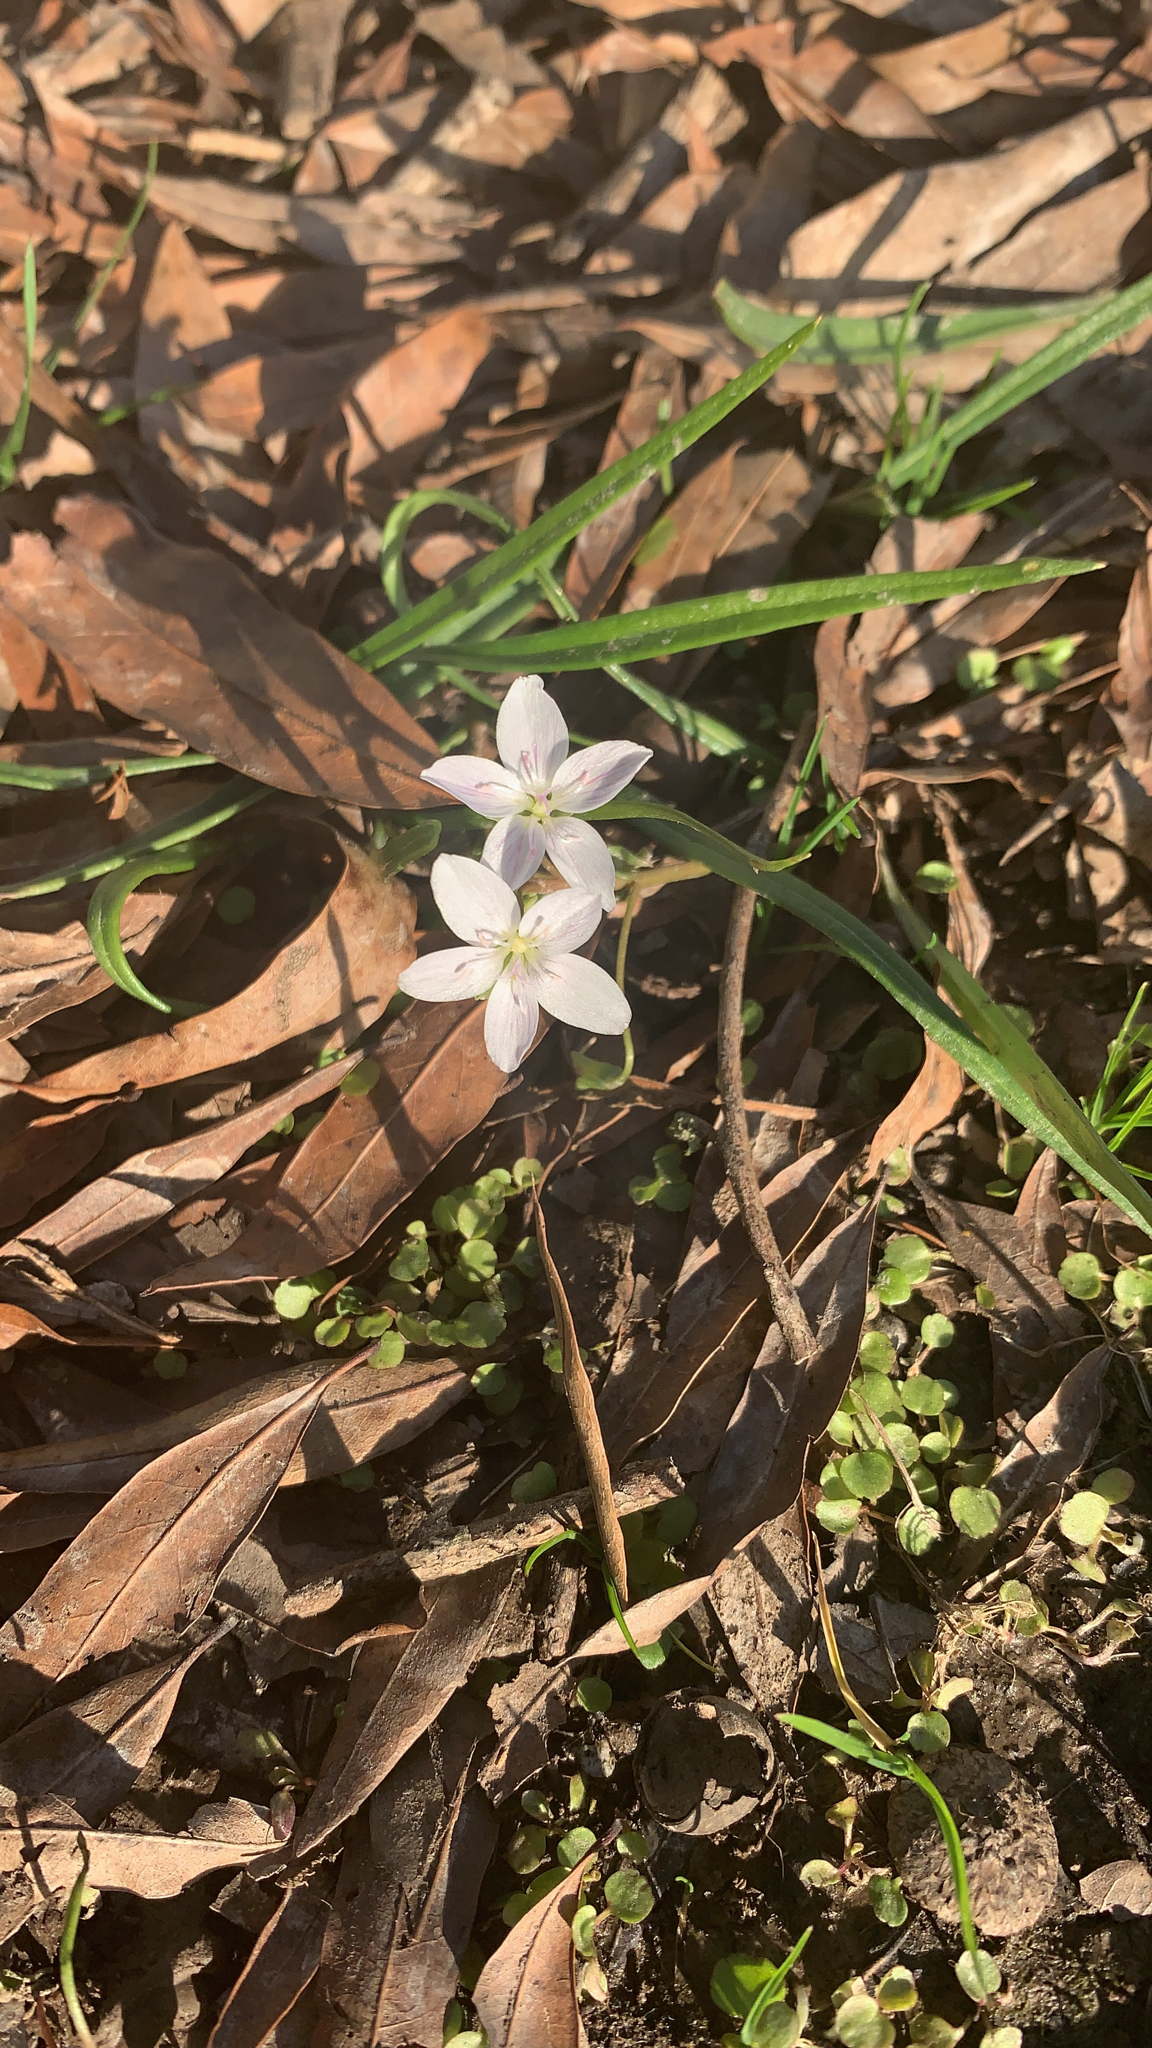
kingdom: Plantae
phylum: Tracheophyta
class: Magnoliopsida
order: Caryophyllales
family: Montiaceae
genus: Claytonia
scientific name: Claytonia virginica
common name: Virginia springbeauty
